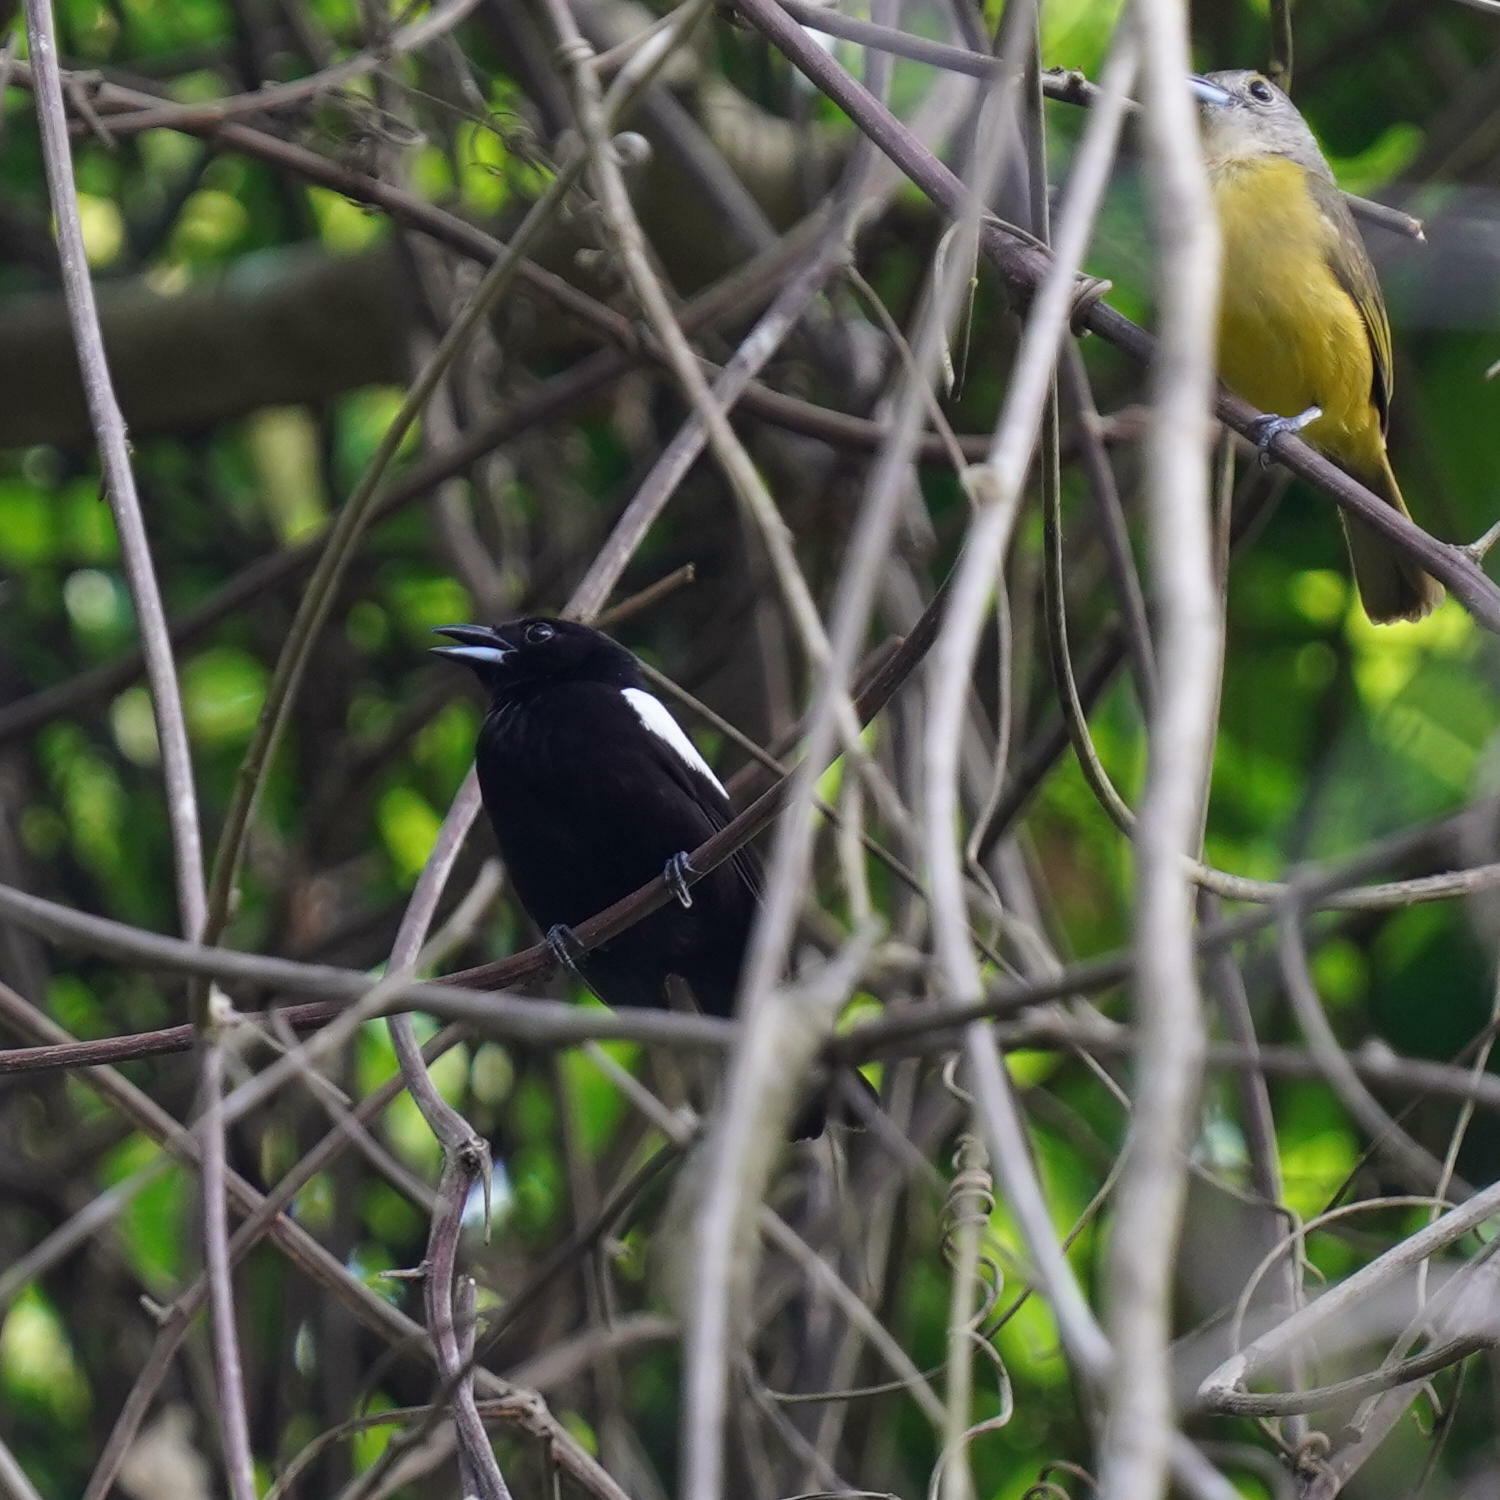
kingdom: Animalia
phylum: Chordata
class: Aves
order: Passeriformes
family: Thraupidae
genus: Loriotus
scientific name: Loriotus luctuosus
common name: White-shouldered tanager
